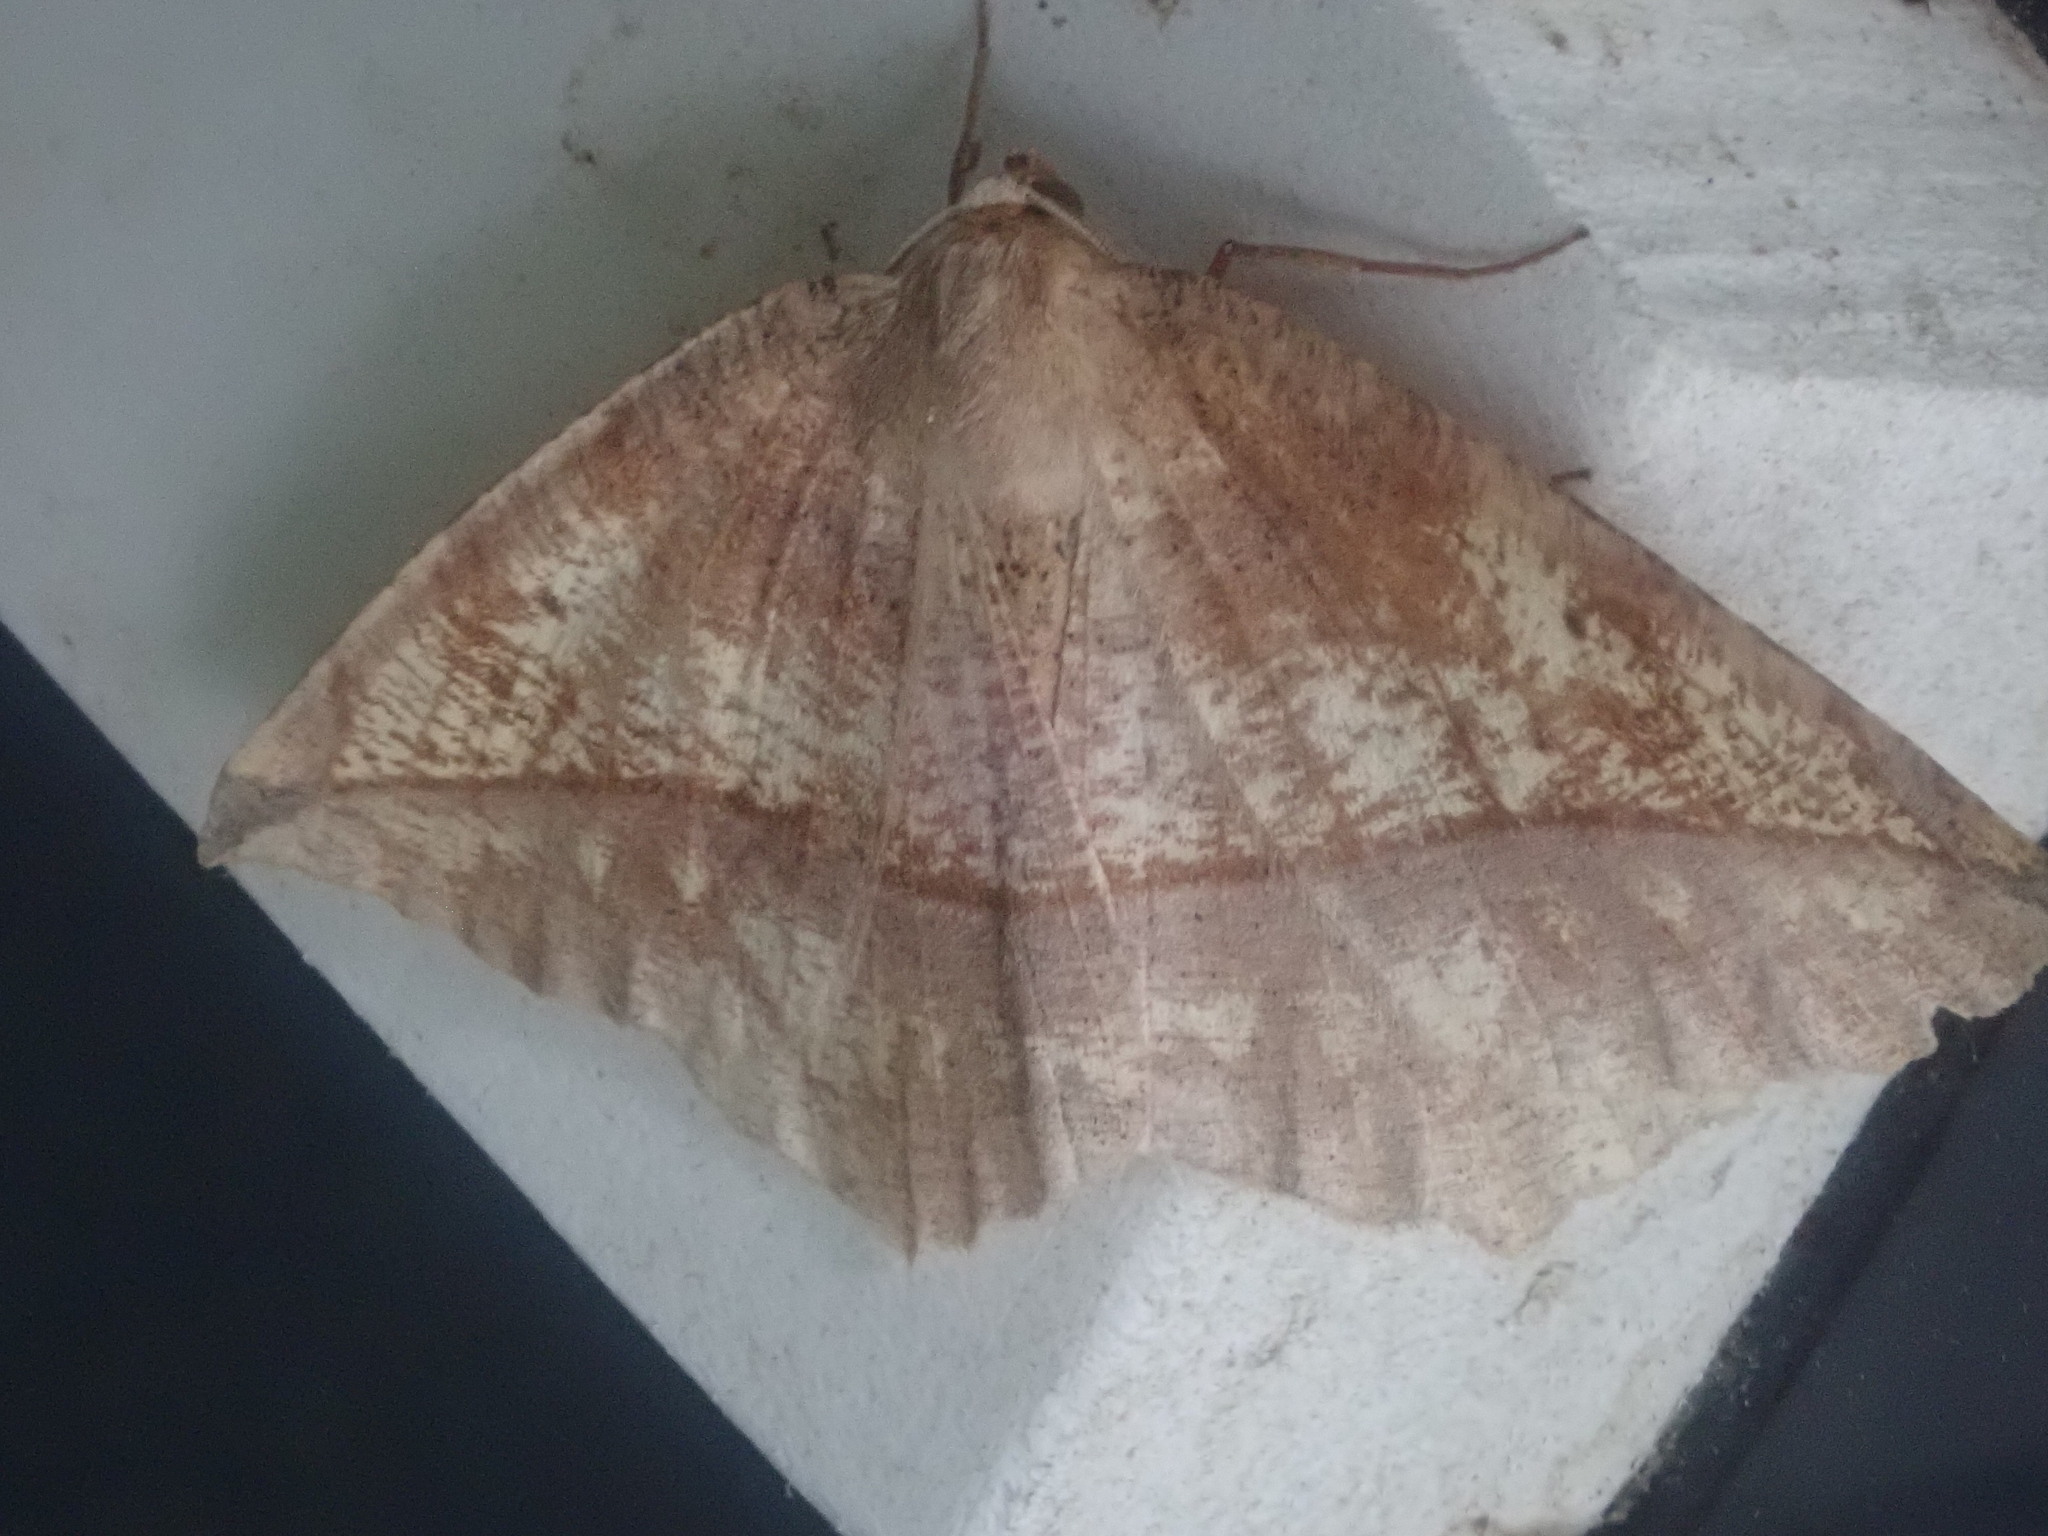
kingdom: Animalia
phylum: Arthropoda
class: Insecta
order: Lepidoptera
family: Geometridae
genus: Eutrapela
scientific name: Eutrapela clemataria
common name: Curved-toothed geometer
